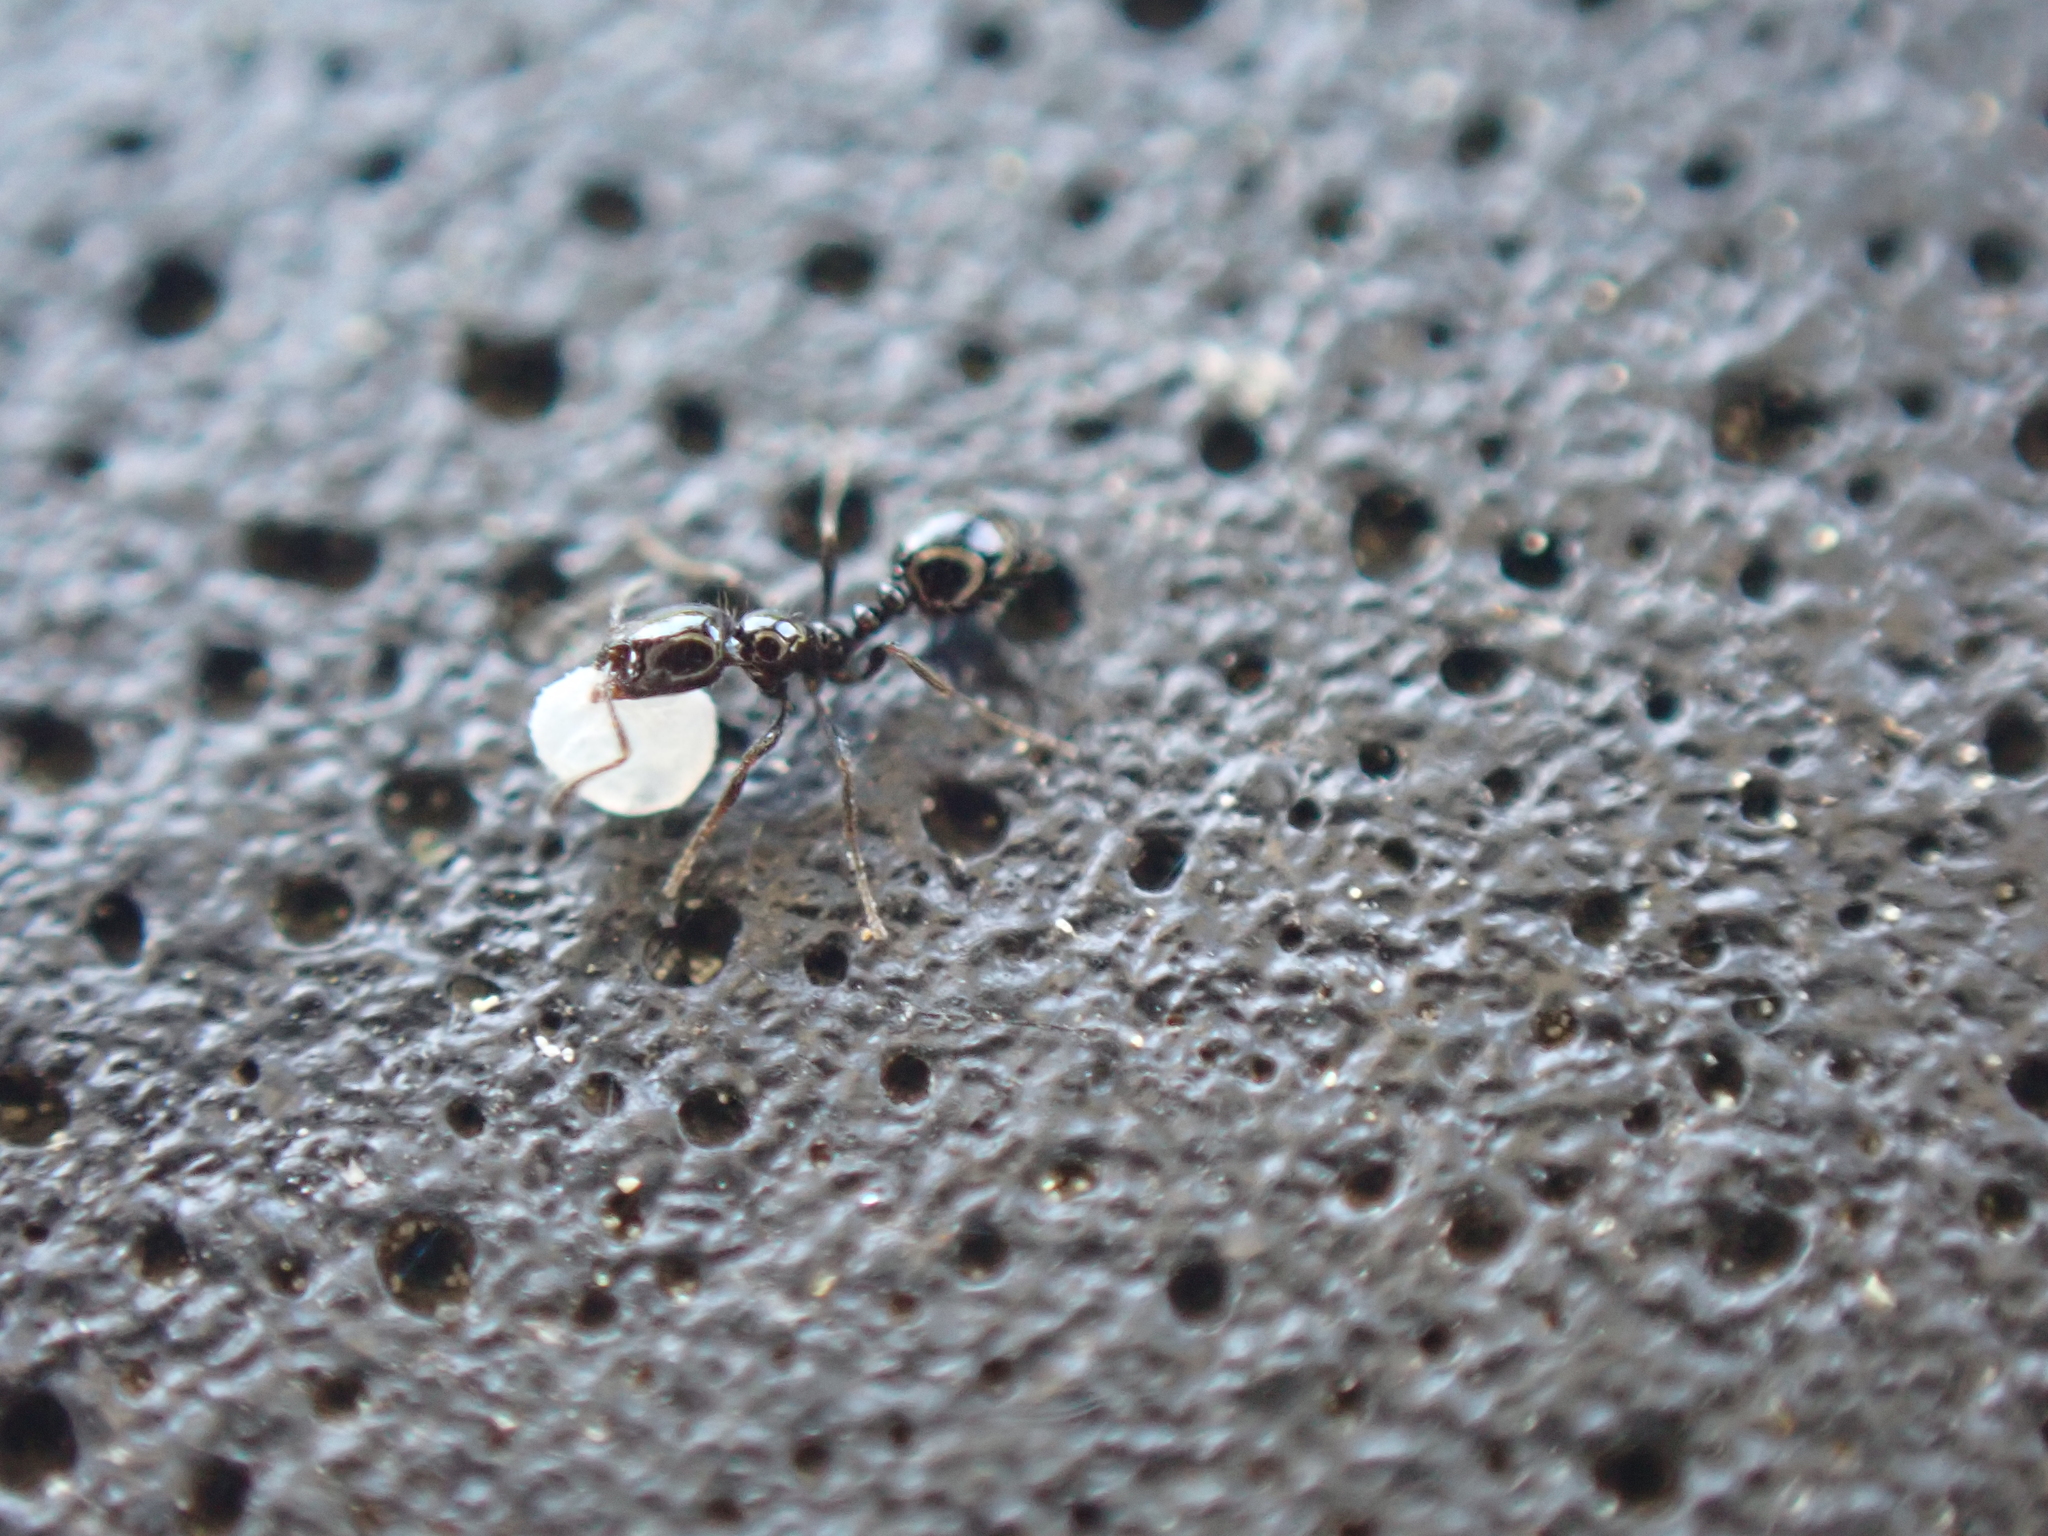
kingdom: Animalia
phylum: Arthropoda
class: Insecta
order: Hymenoptera
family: Formicidae
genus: Monomorium
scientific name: Monomorium minimum
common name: Little black ant
